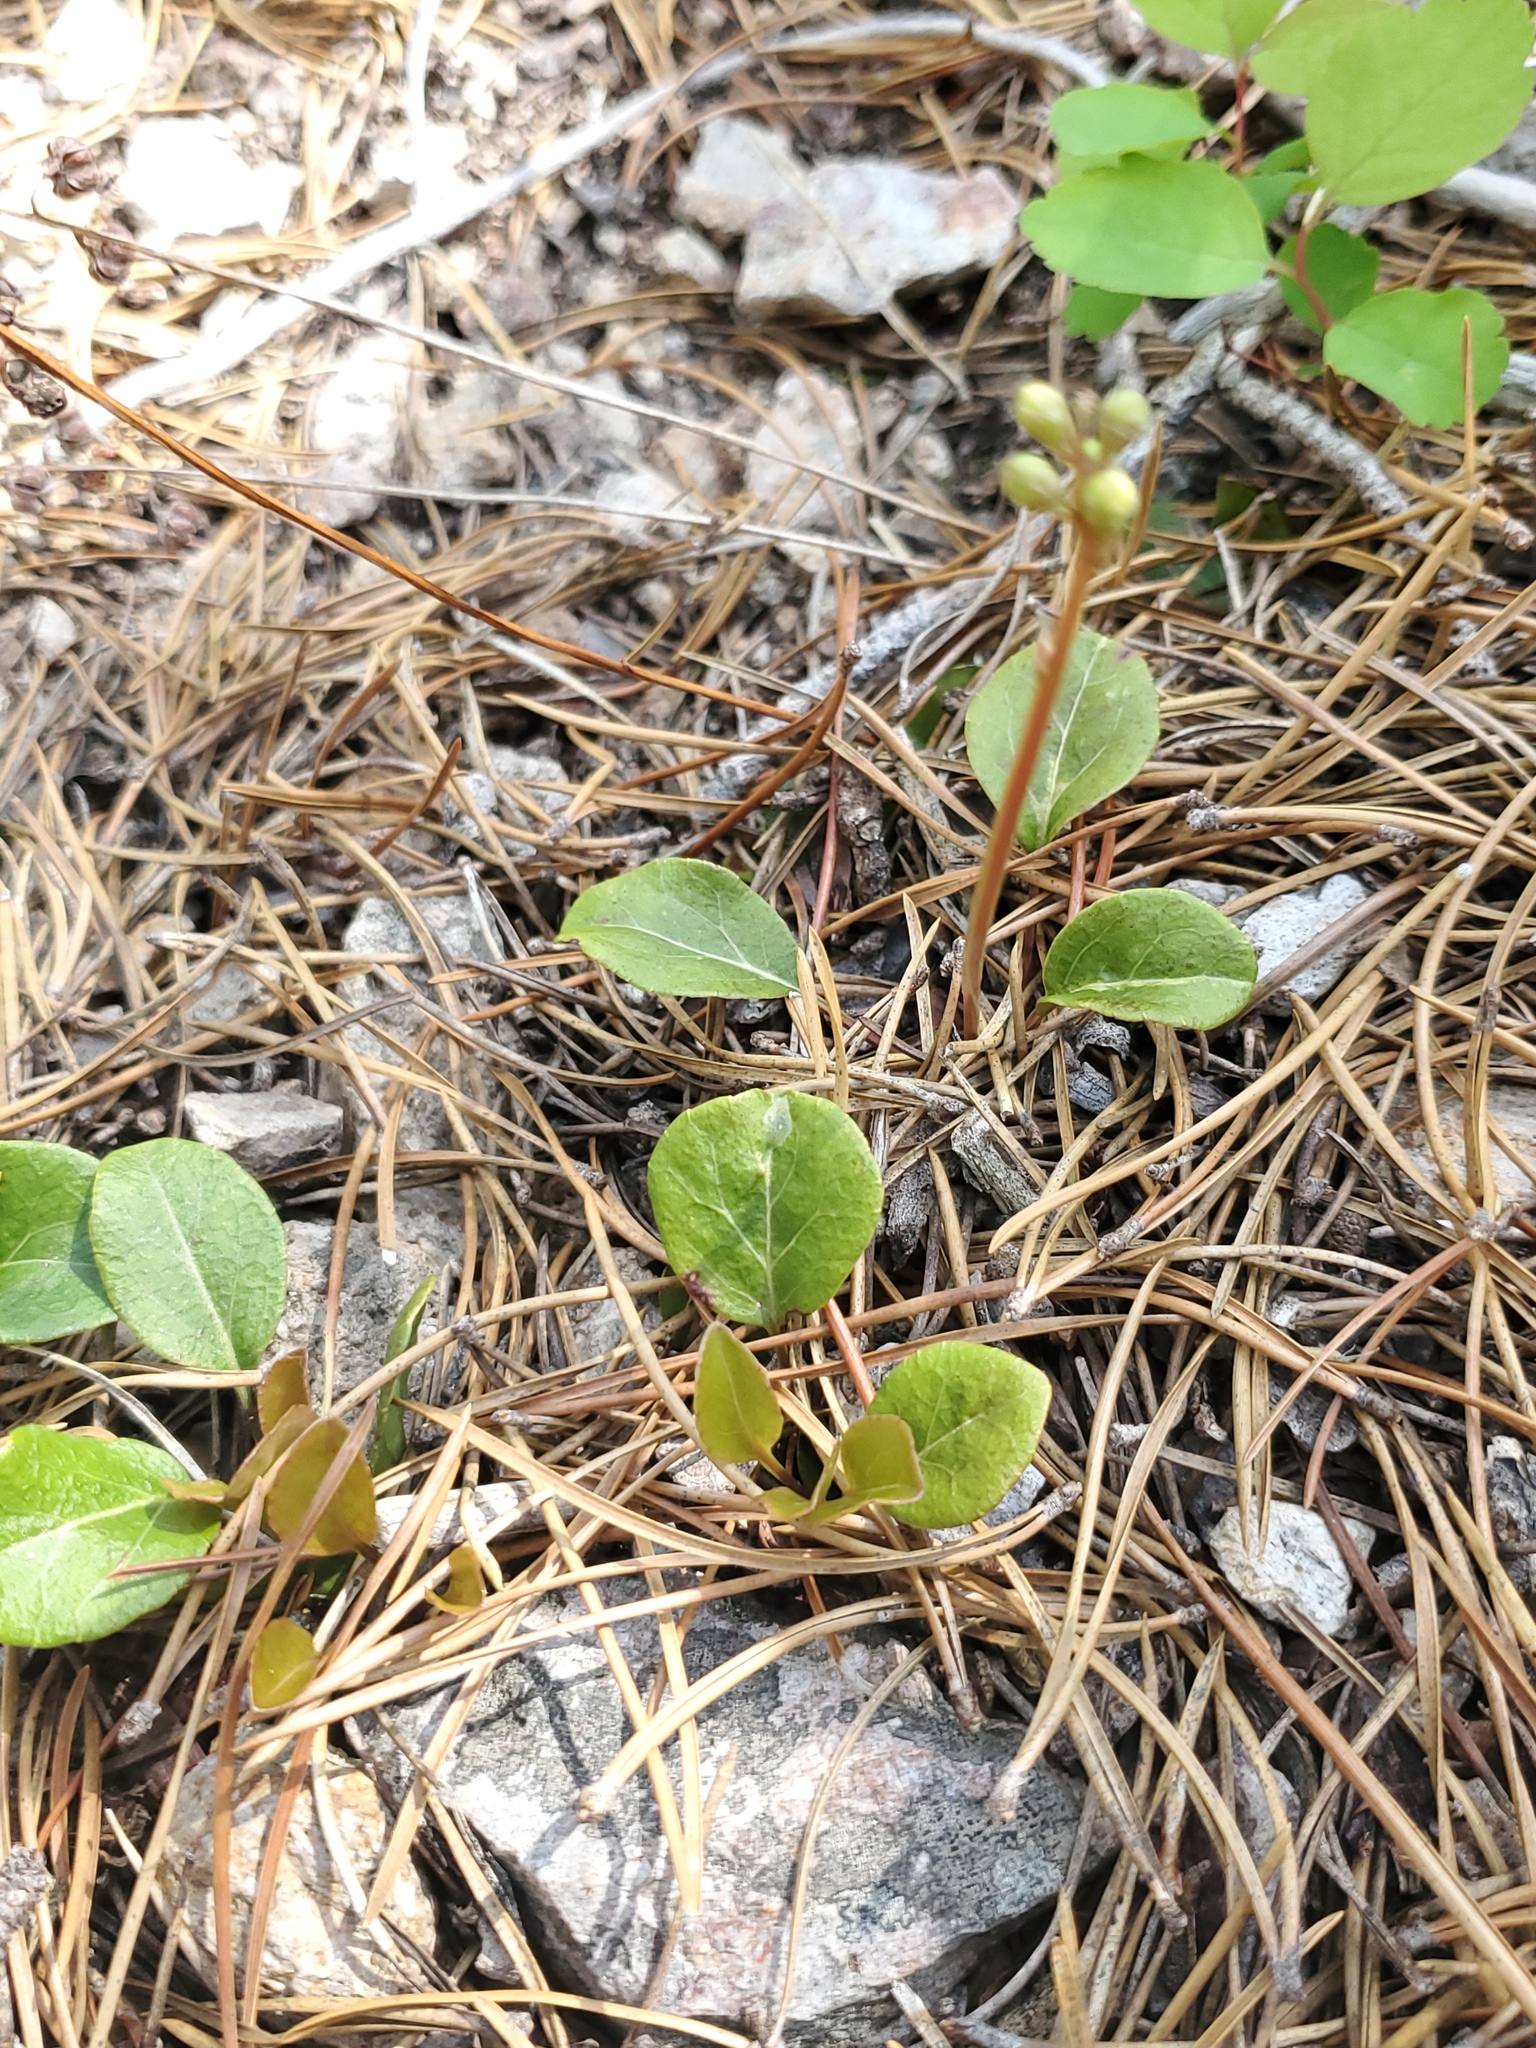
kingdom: Plantae
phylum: Tracheophyta
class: Magnoliopsida
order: Ericales
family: Ericaceae
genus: Pyrola
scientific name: Pyrola chlorantha
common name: Green wintergreen
